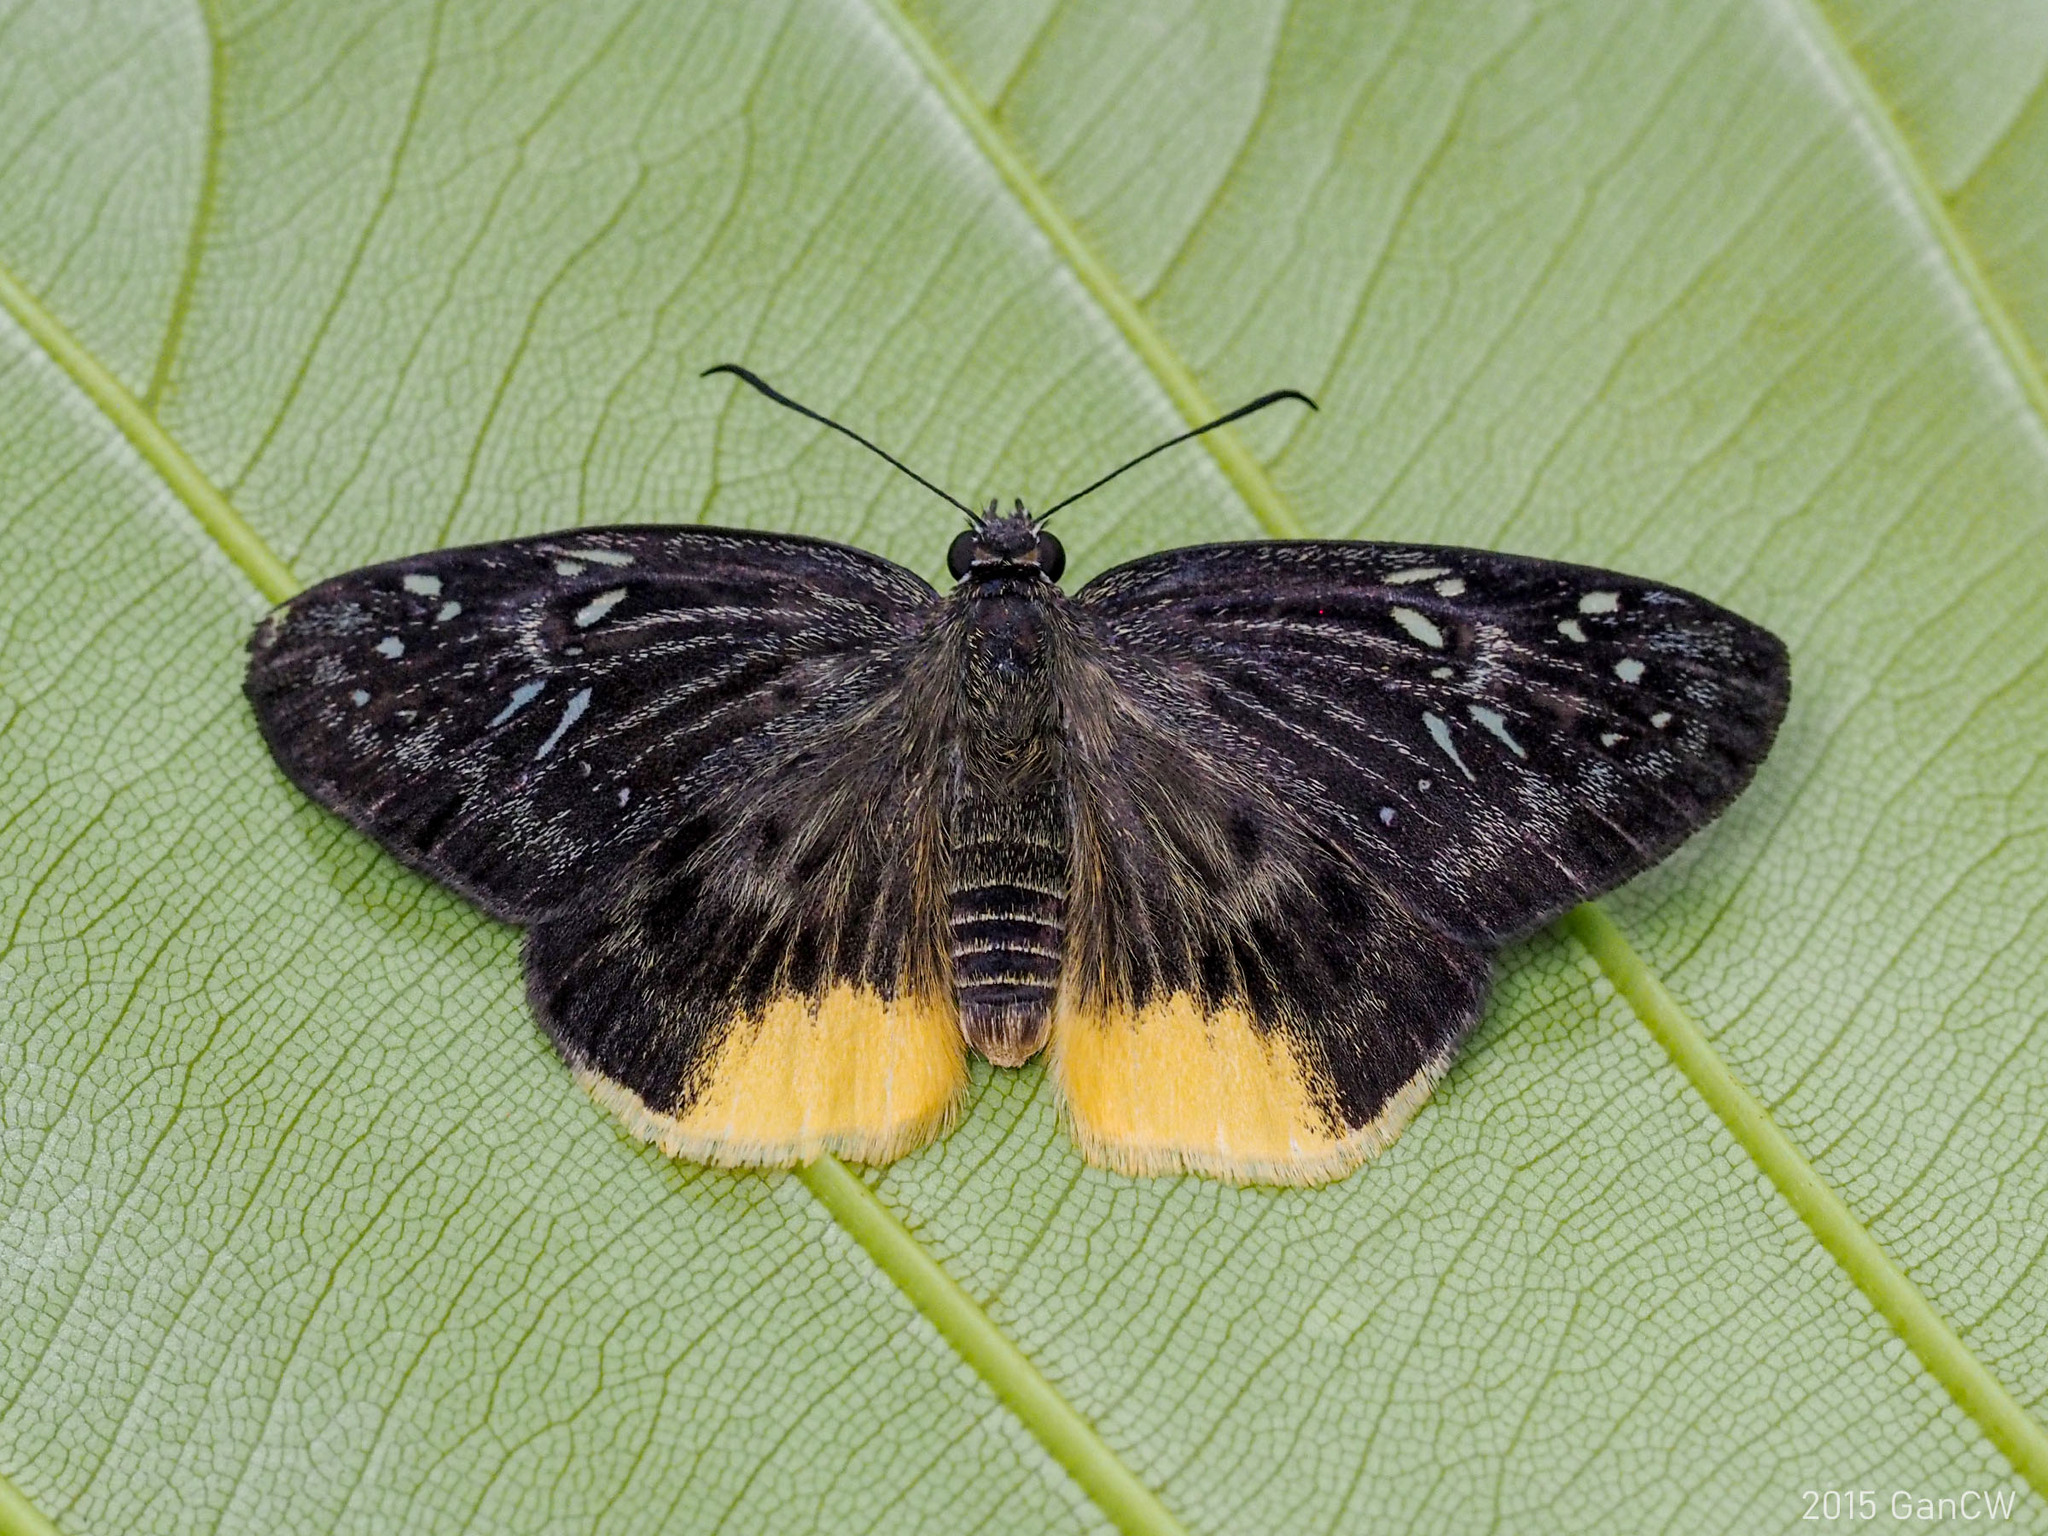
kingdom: Animalia
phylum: Arthropoda
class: Insecta
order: Lepidoptera
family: Hesperiidae
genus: Mooreana
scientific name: Mooreana trichoneura
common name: Yellow flat
